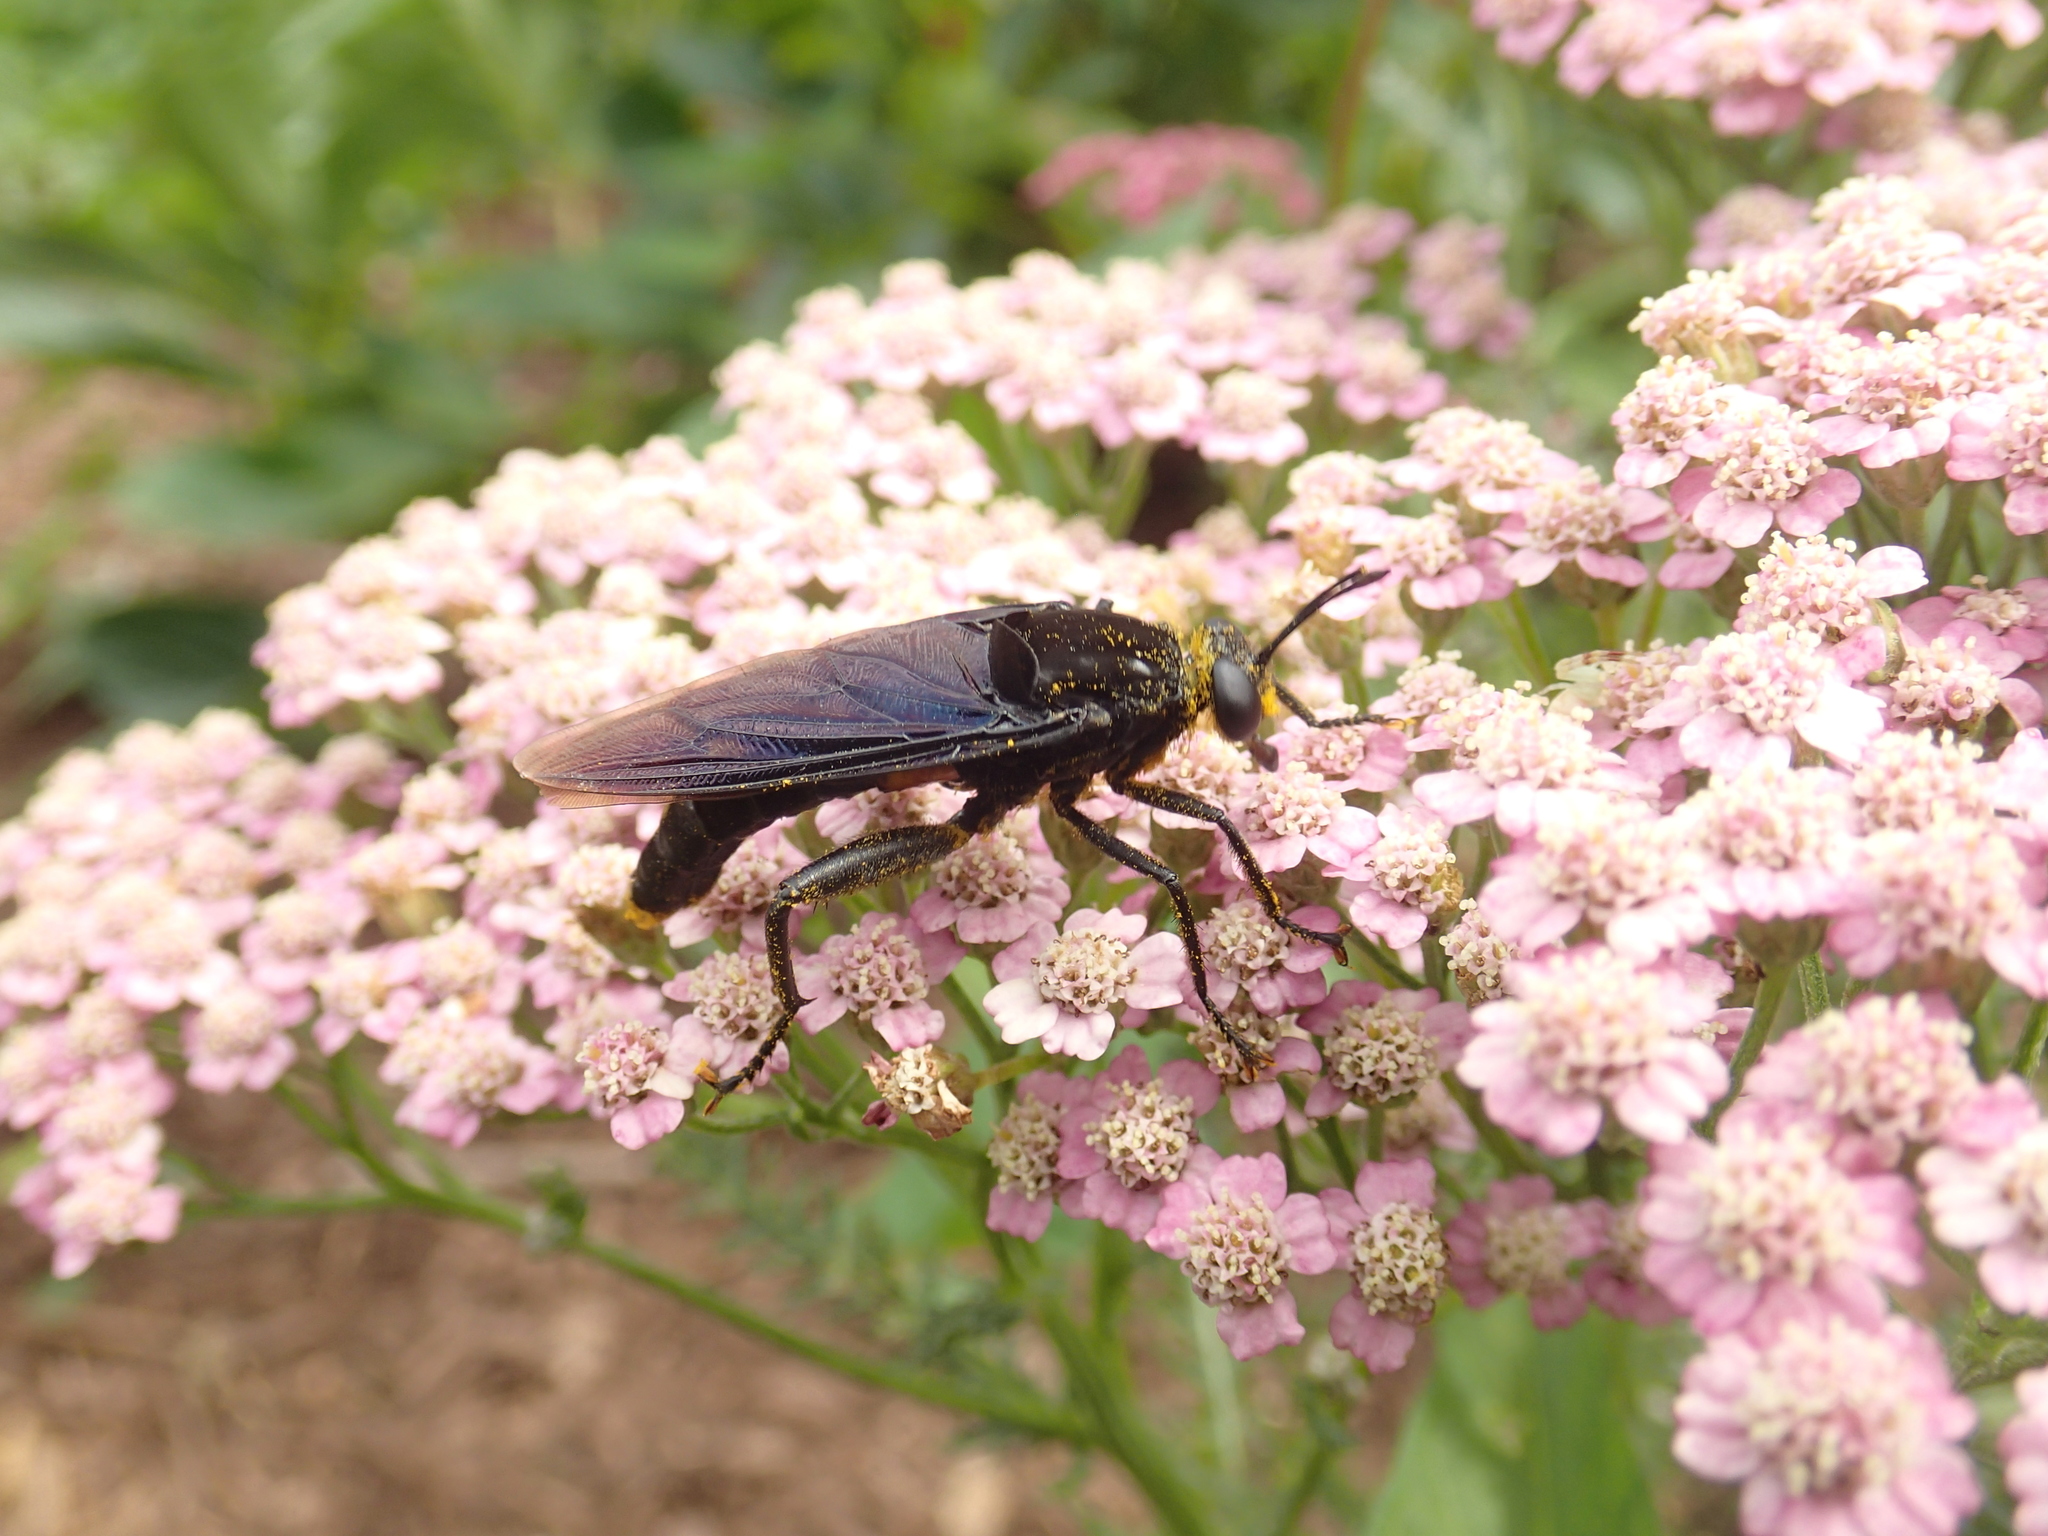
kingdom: Animalia
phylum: Arthropoda
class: Insecta
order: Diptera
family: Mydidae
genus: Mydas
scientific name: Mydas clavatus
